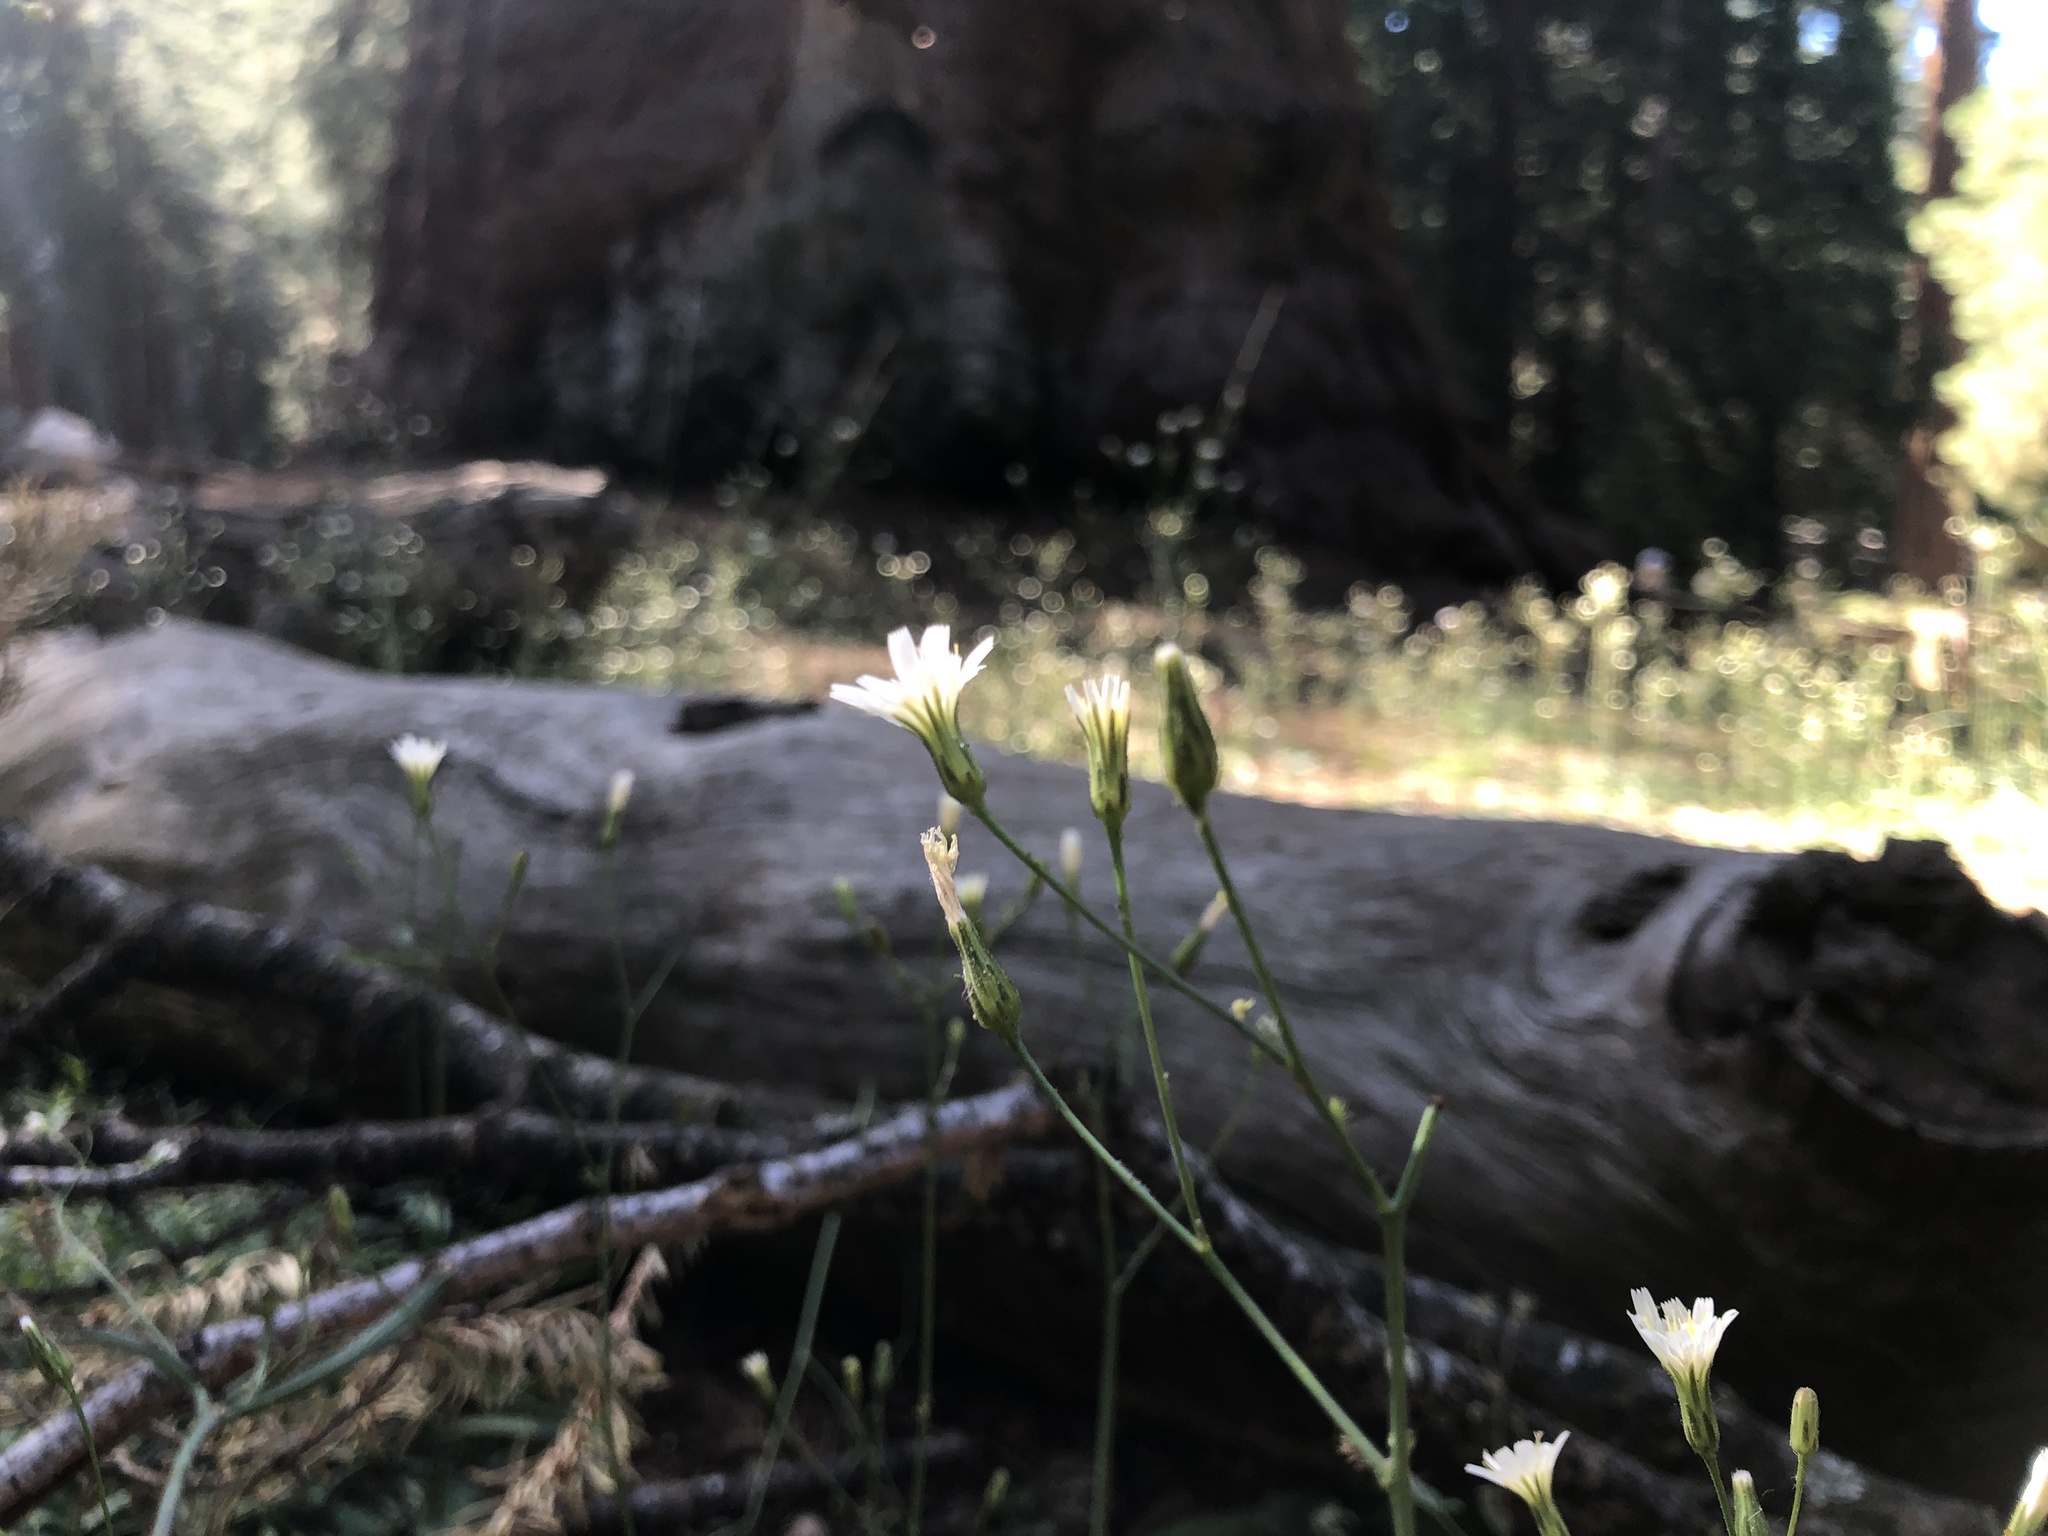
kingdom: Plantae
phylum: Tracheophyta
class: Magnoliopsida
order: Asterales
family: Asteraceae
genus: Hieracium
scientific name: Hieracium albiflorum
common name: White hawkweed
